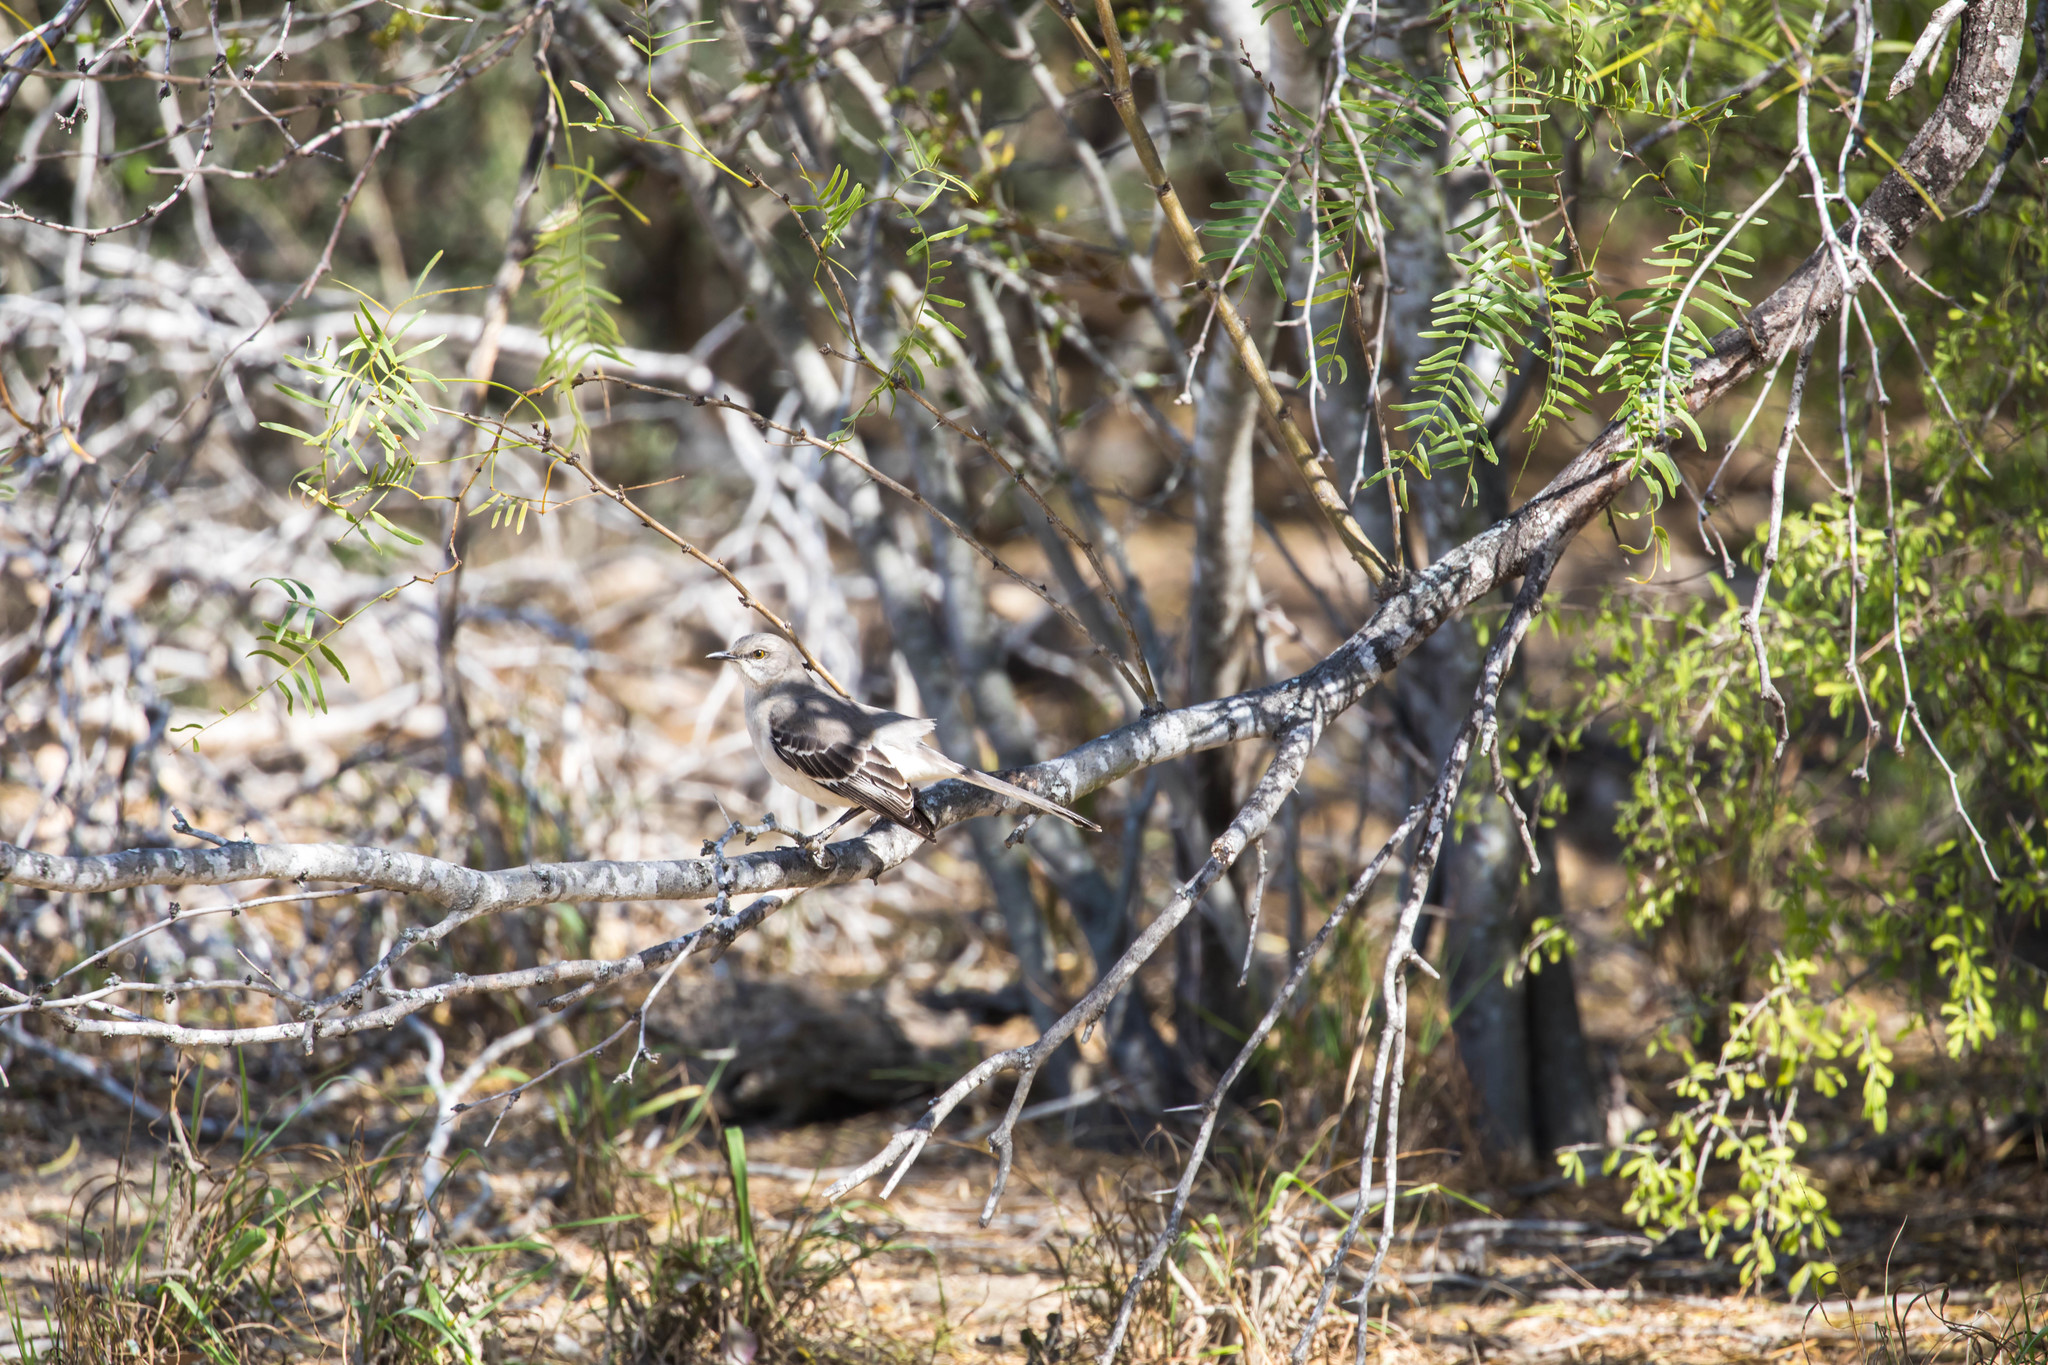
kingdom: Animalia
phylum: Chordata
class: Aves
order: Passeriformes
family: Mimidae
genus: Mimus
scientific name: Mimus polyglottos
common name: Northern mockingbird
